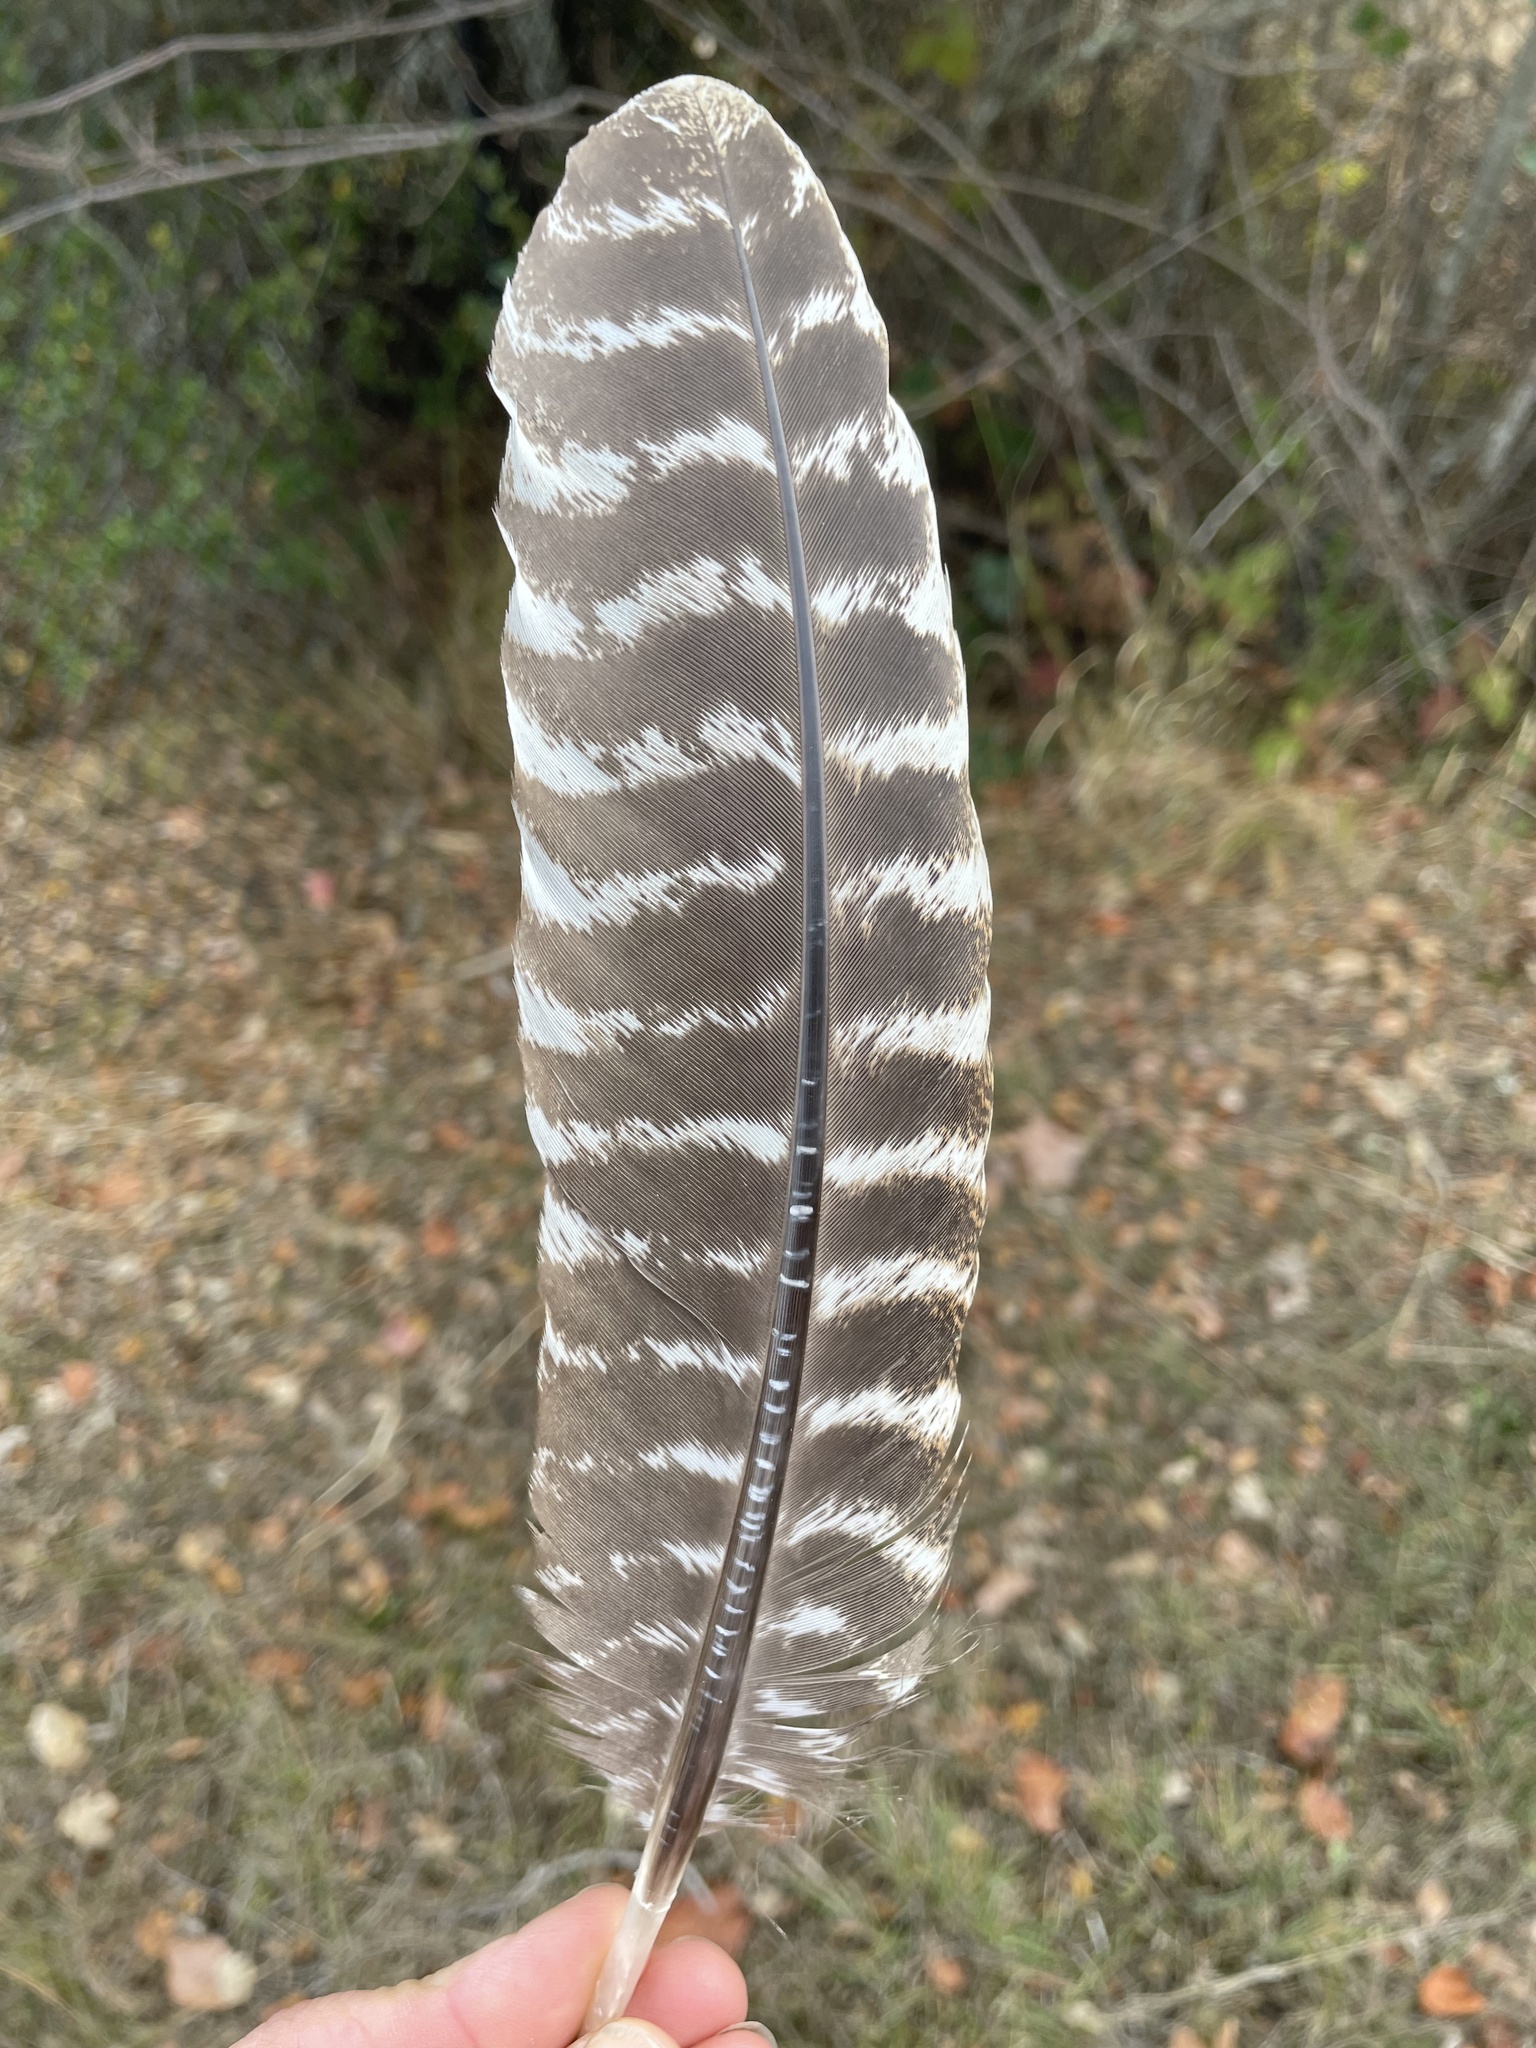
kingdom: Animalia
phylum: Chordata
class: Aves
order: Galliformes
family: Phasianidae
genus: Meleagris
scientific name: Meleagris gallopavo
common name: Wild turkey
